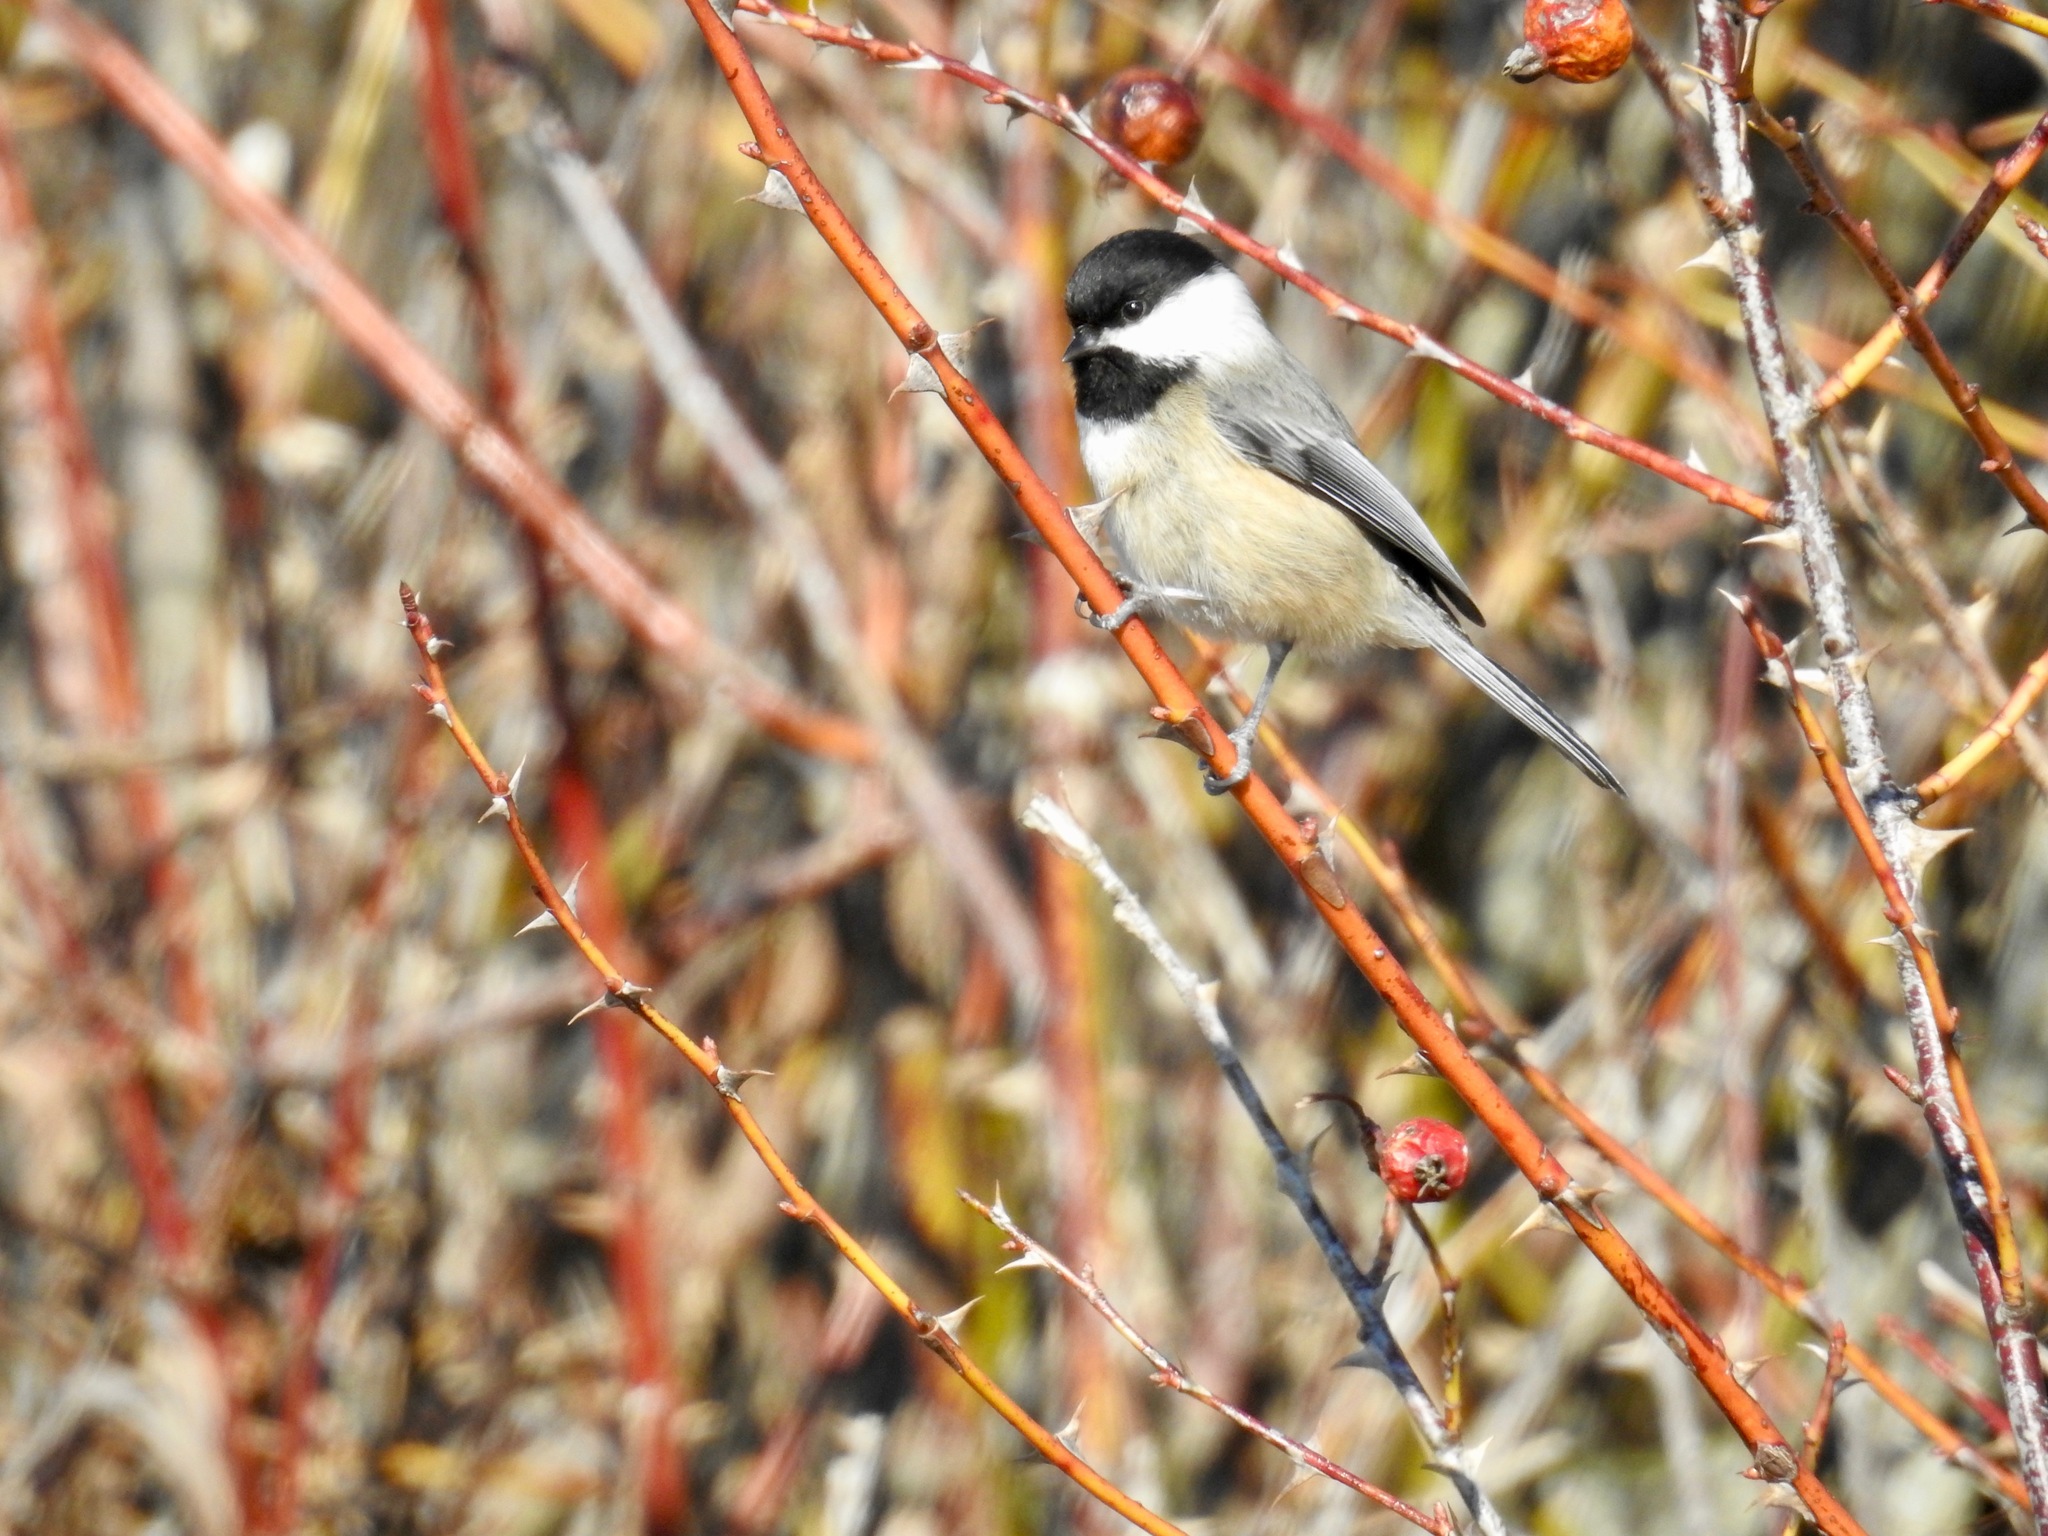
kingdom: Animalia
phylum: Chordata
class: Aves
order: Passeriformes
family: Paridae
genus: Poecile
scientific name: Poecile atricapillus
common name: Black-capped chickadee
